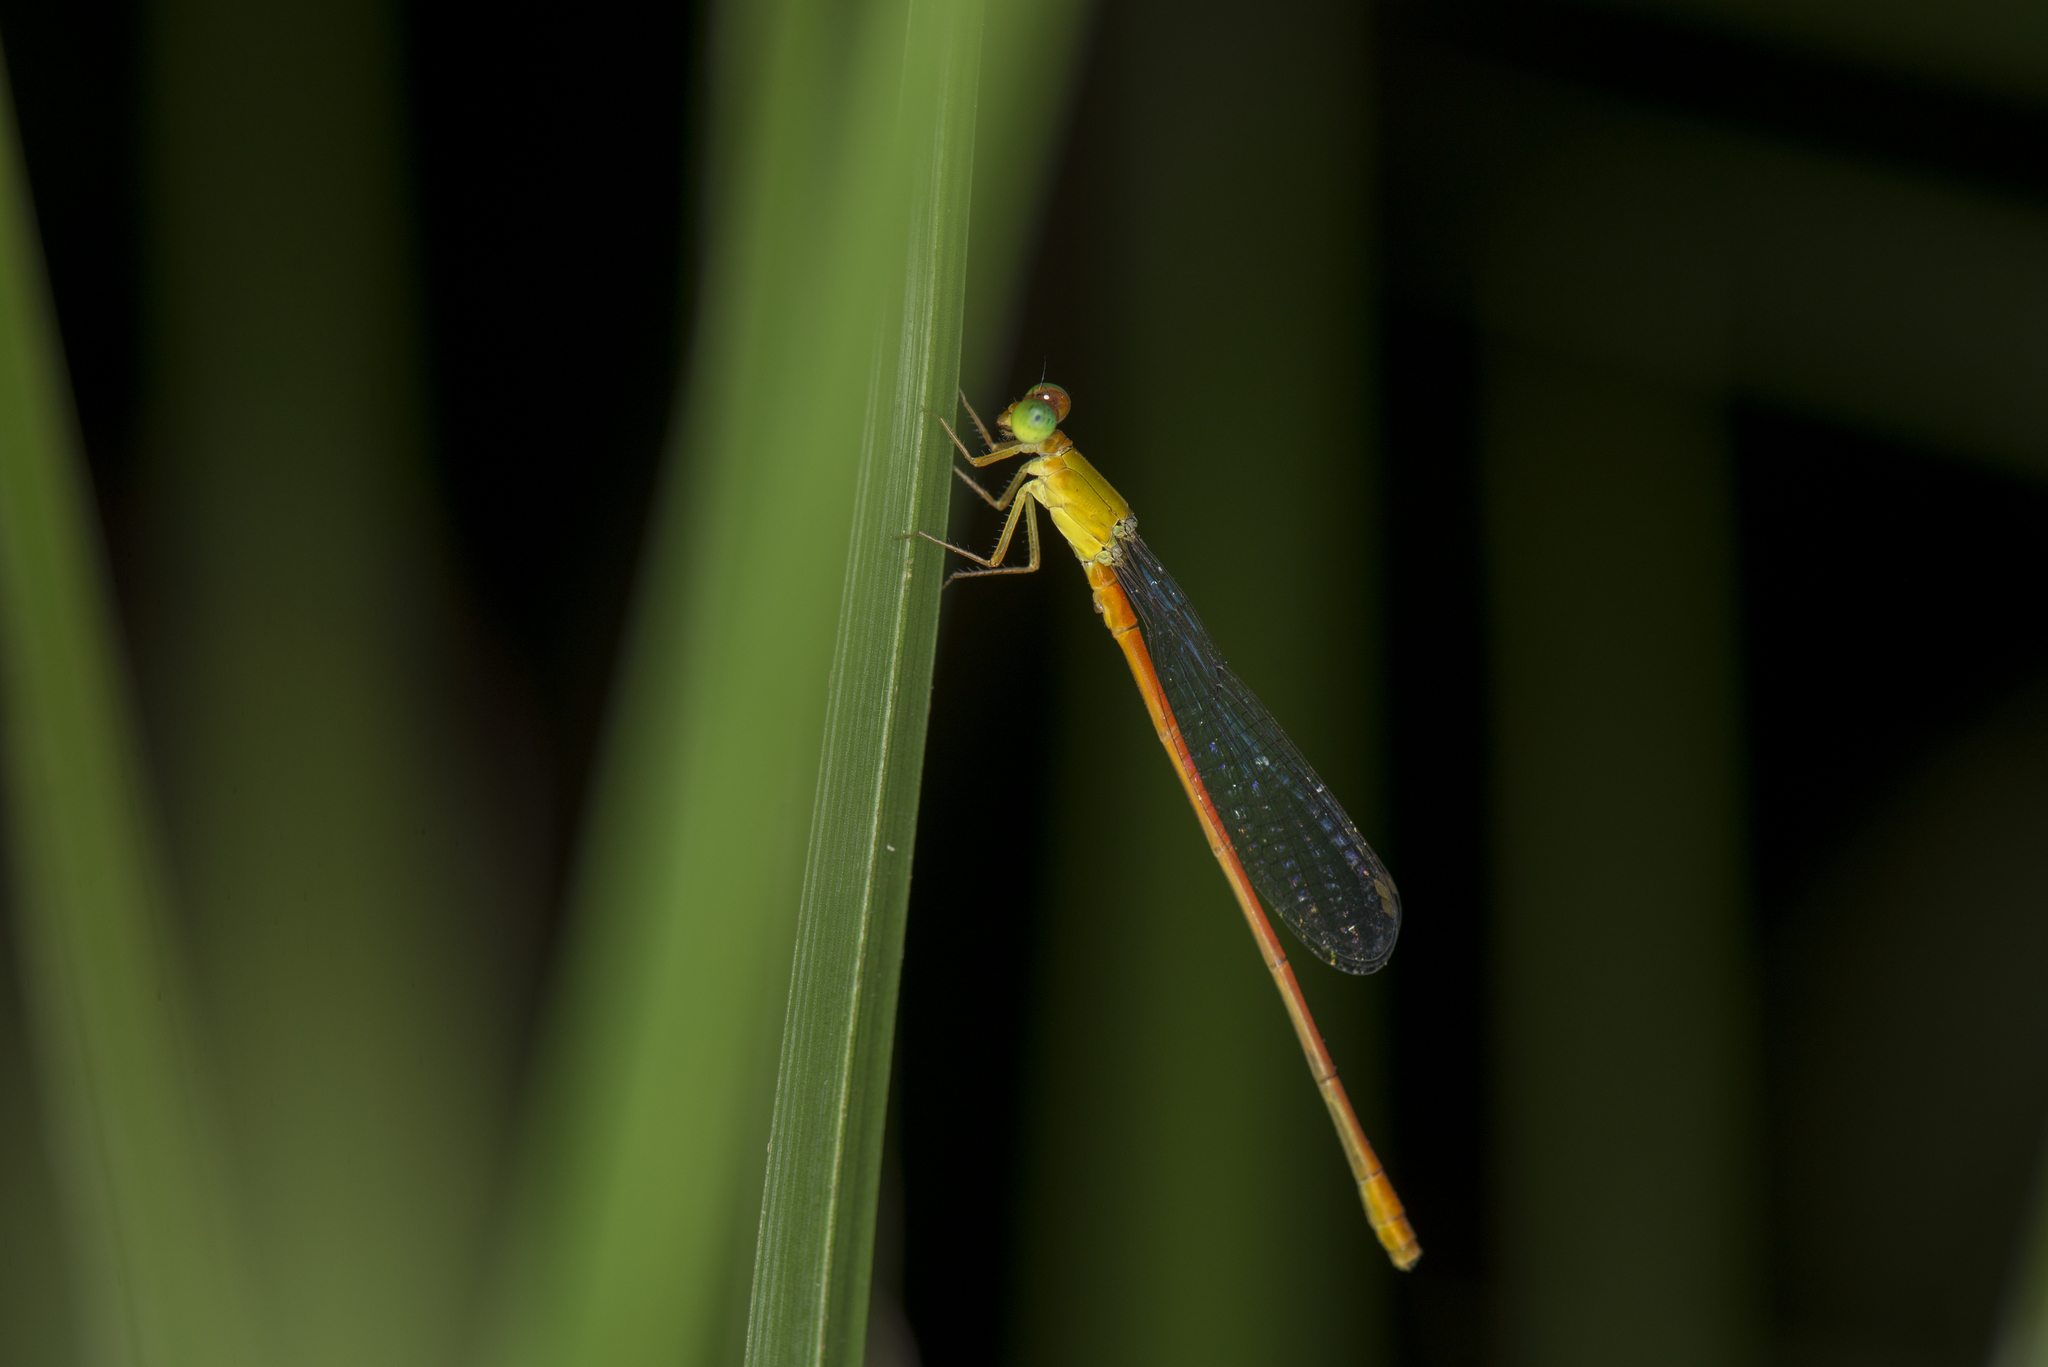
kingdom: Animalia
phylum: Arthropoda
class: Insecta
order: Odonata
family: Coenagrionidae
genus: Ceriagrion
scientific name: Ceriagrion auranticum
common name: Orange-tailed sprite
